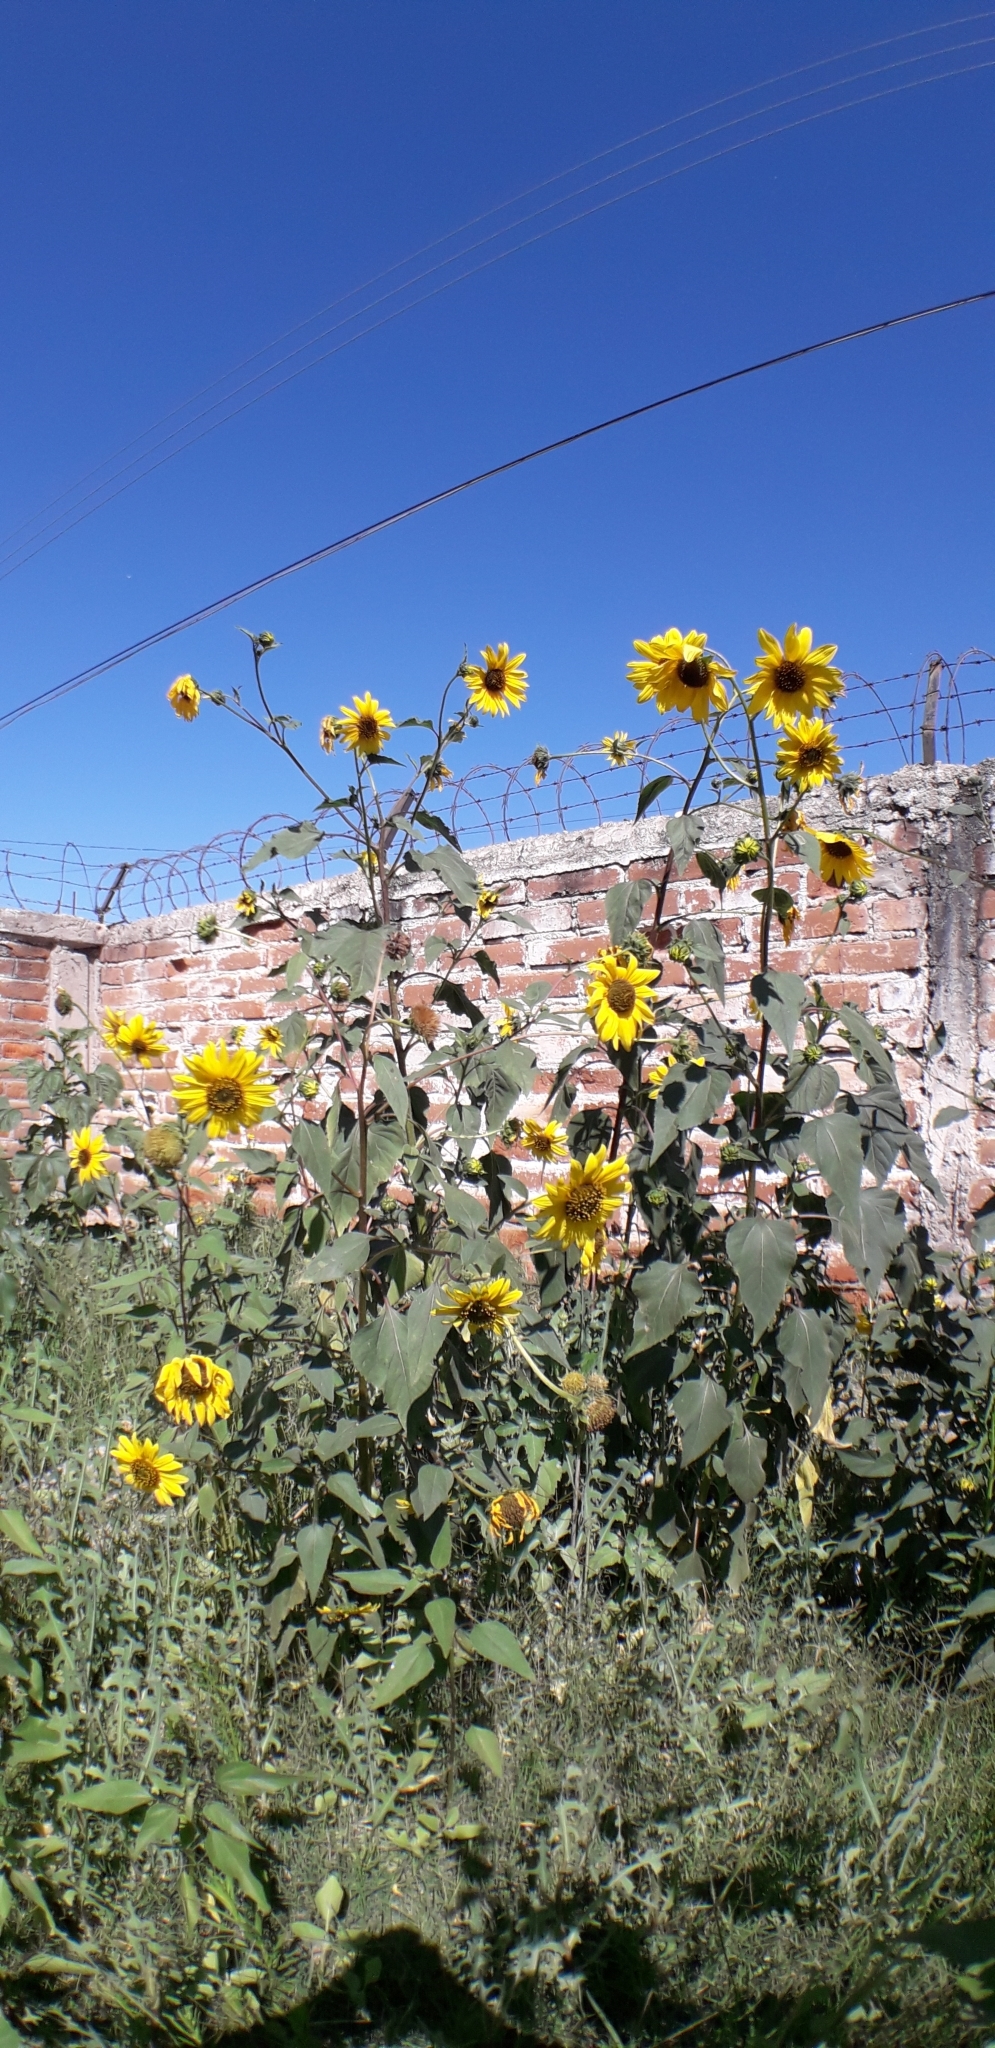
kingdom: Plantae
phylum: Tracheophyta
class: Magnoliopsida
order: Asterales
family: Asteraceae
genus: Helianthus
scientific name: Helianthus annuus
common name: Sunflower
